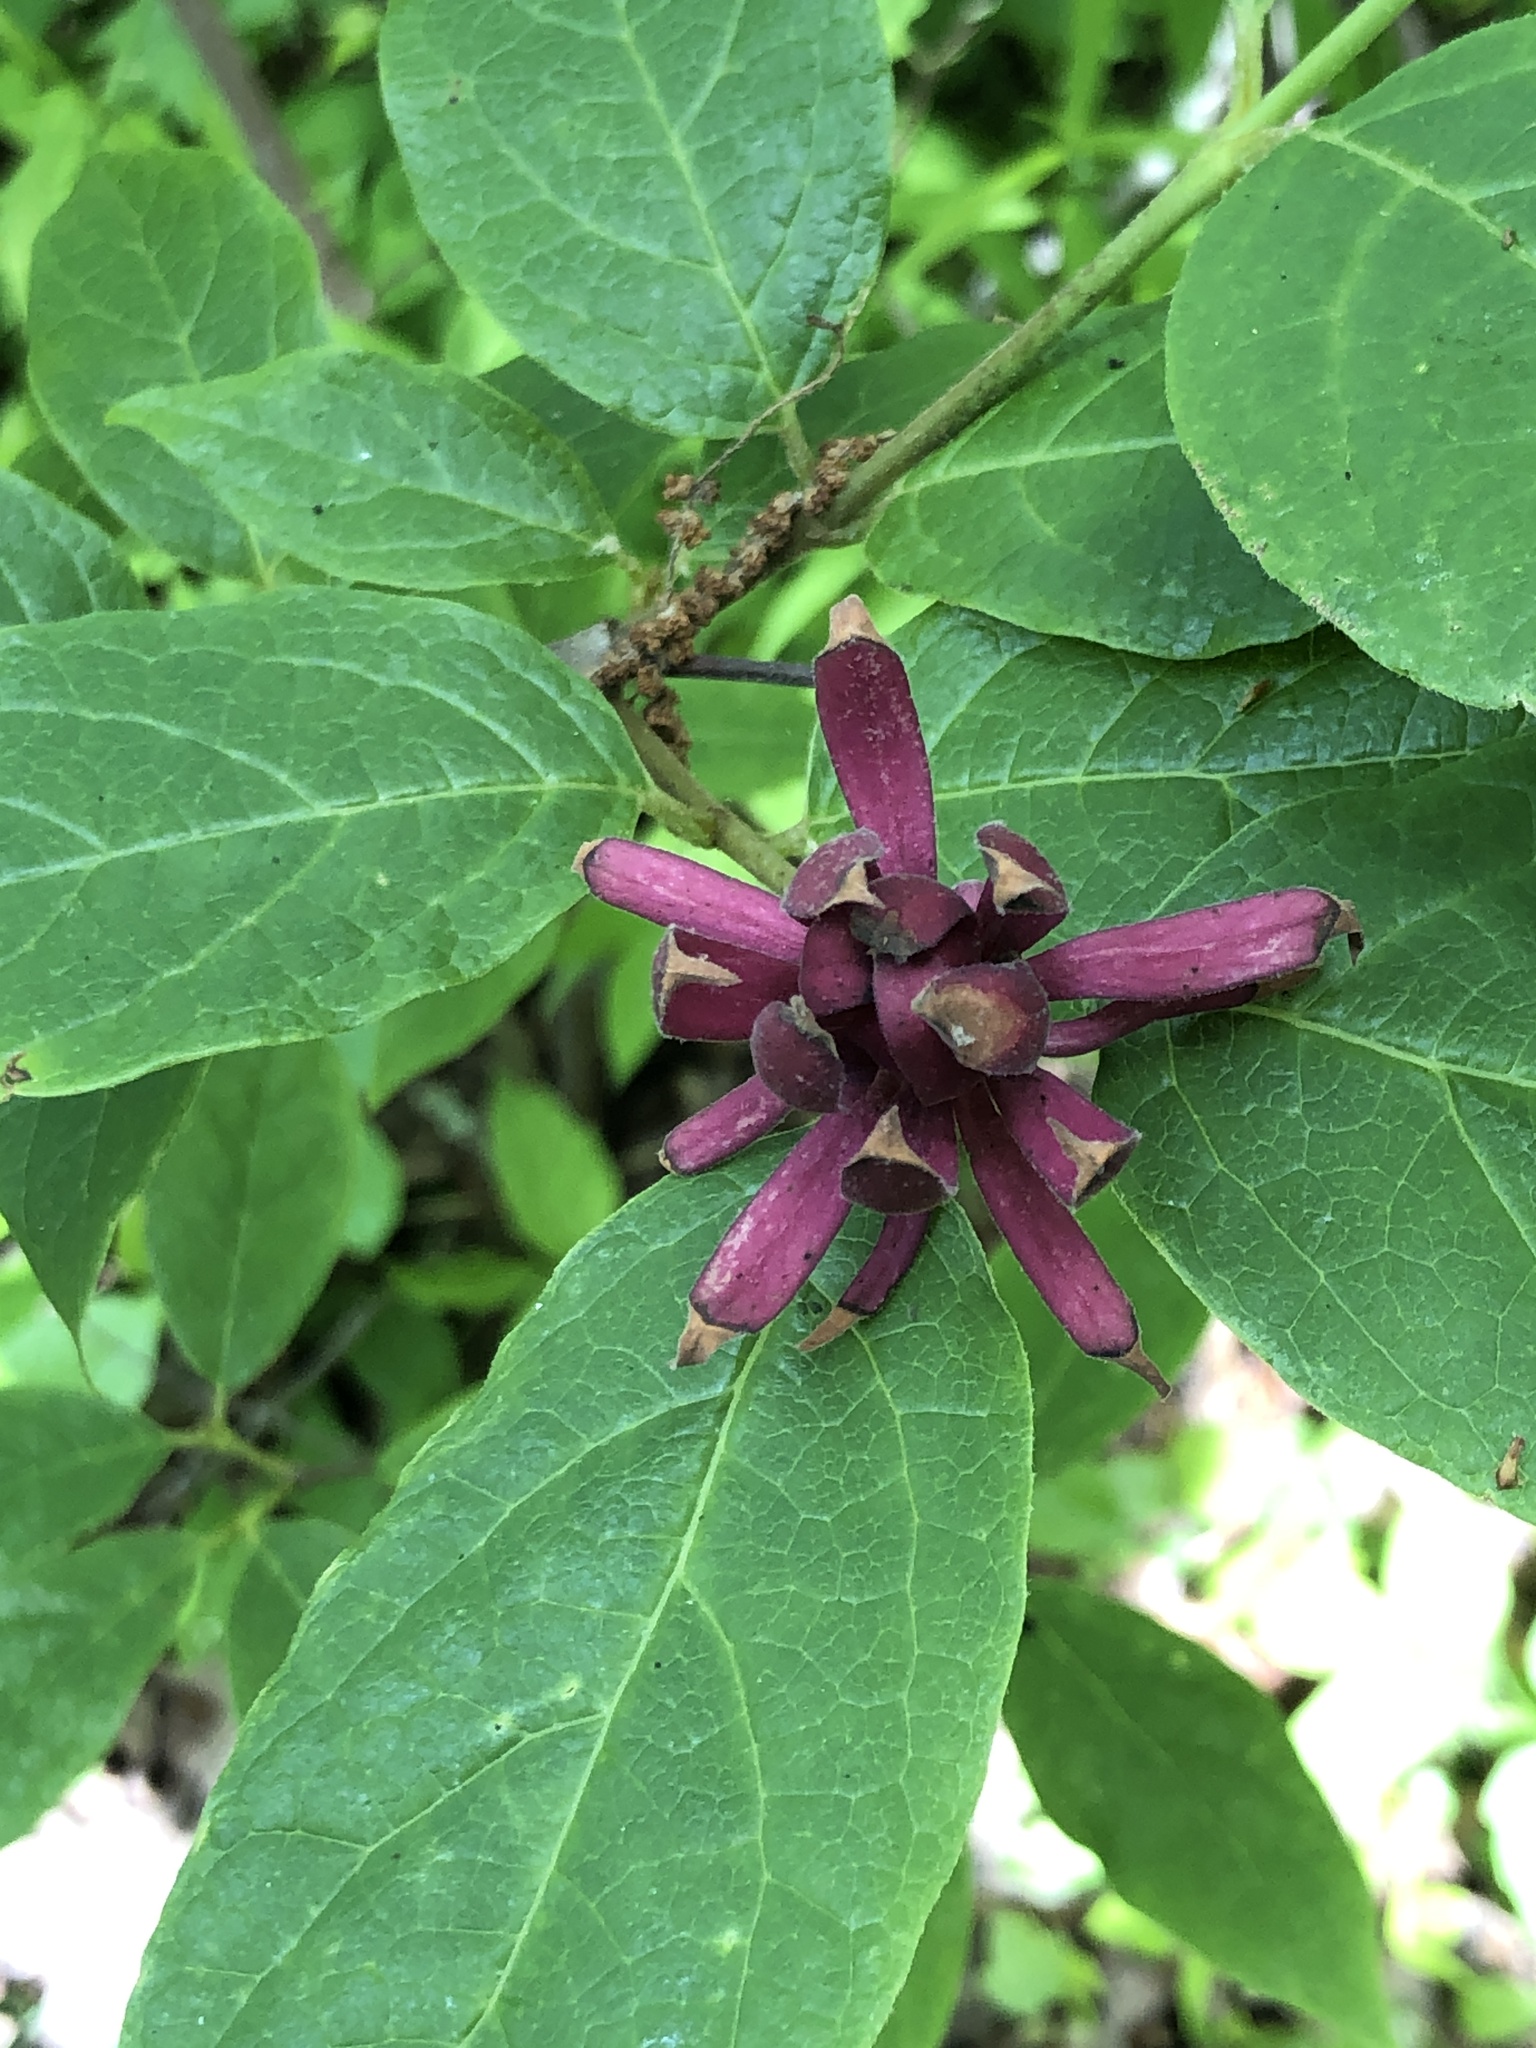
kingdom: Plantae
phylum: Tracheophyta
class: Magnoliopsida
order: Laurales
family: Calycanthaceae
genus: Calycanthus
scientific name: Calycanthus floridus
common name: Carolina-allspice
